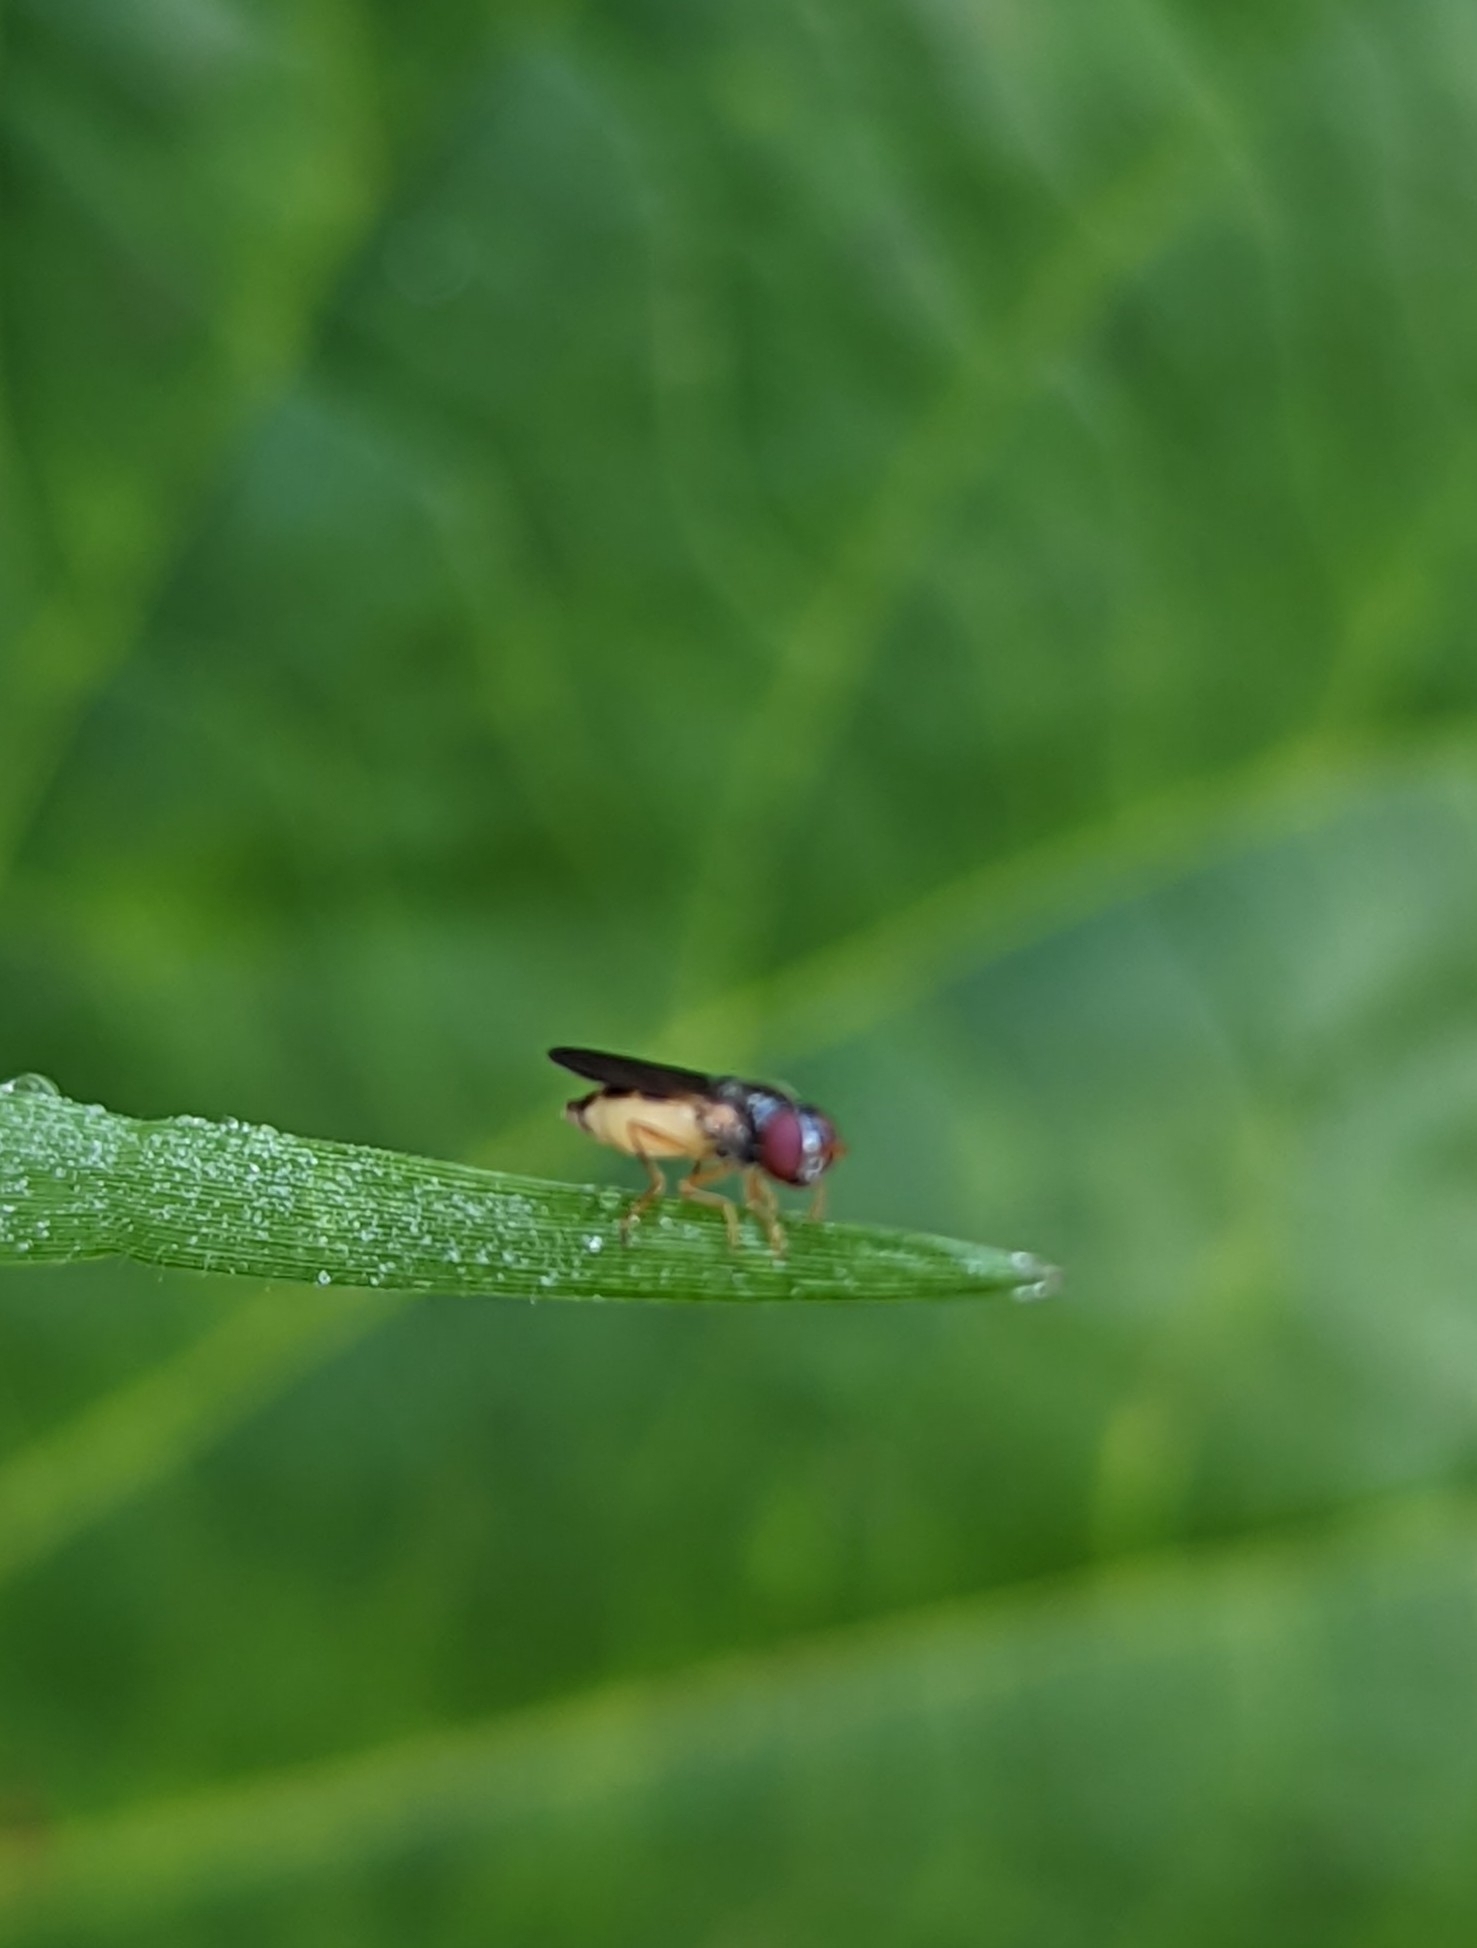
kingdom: Animalia
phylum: Arthropoda
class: Insecta
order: Diptera
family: Syrphidae
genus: Melanostoma
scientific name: Melanostoma apicale
